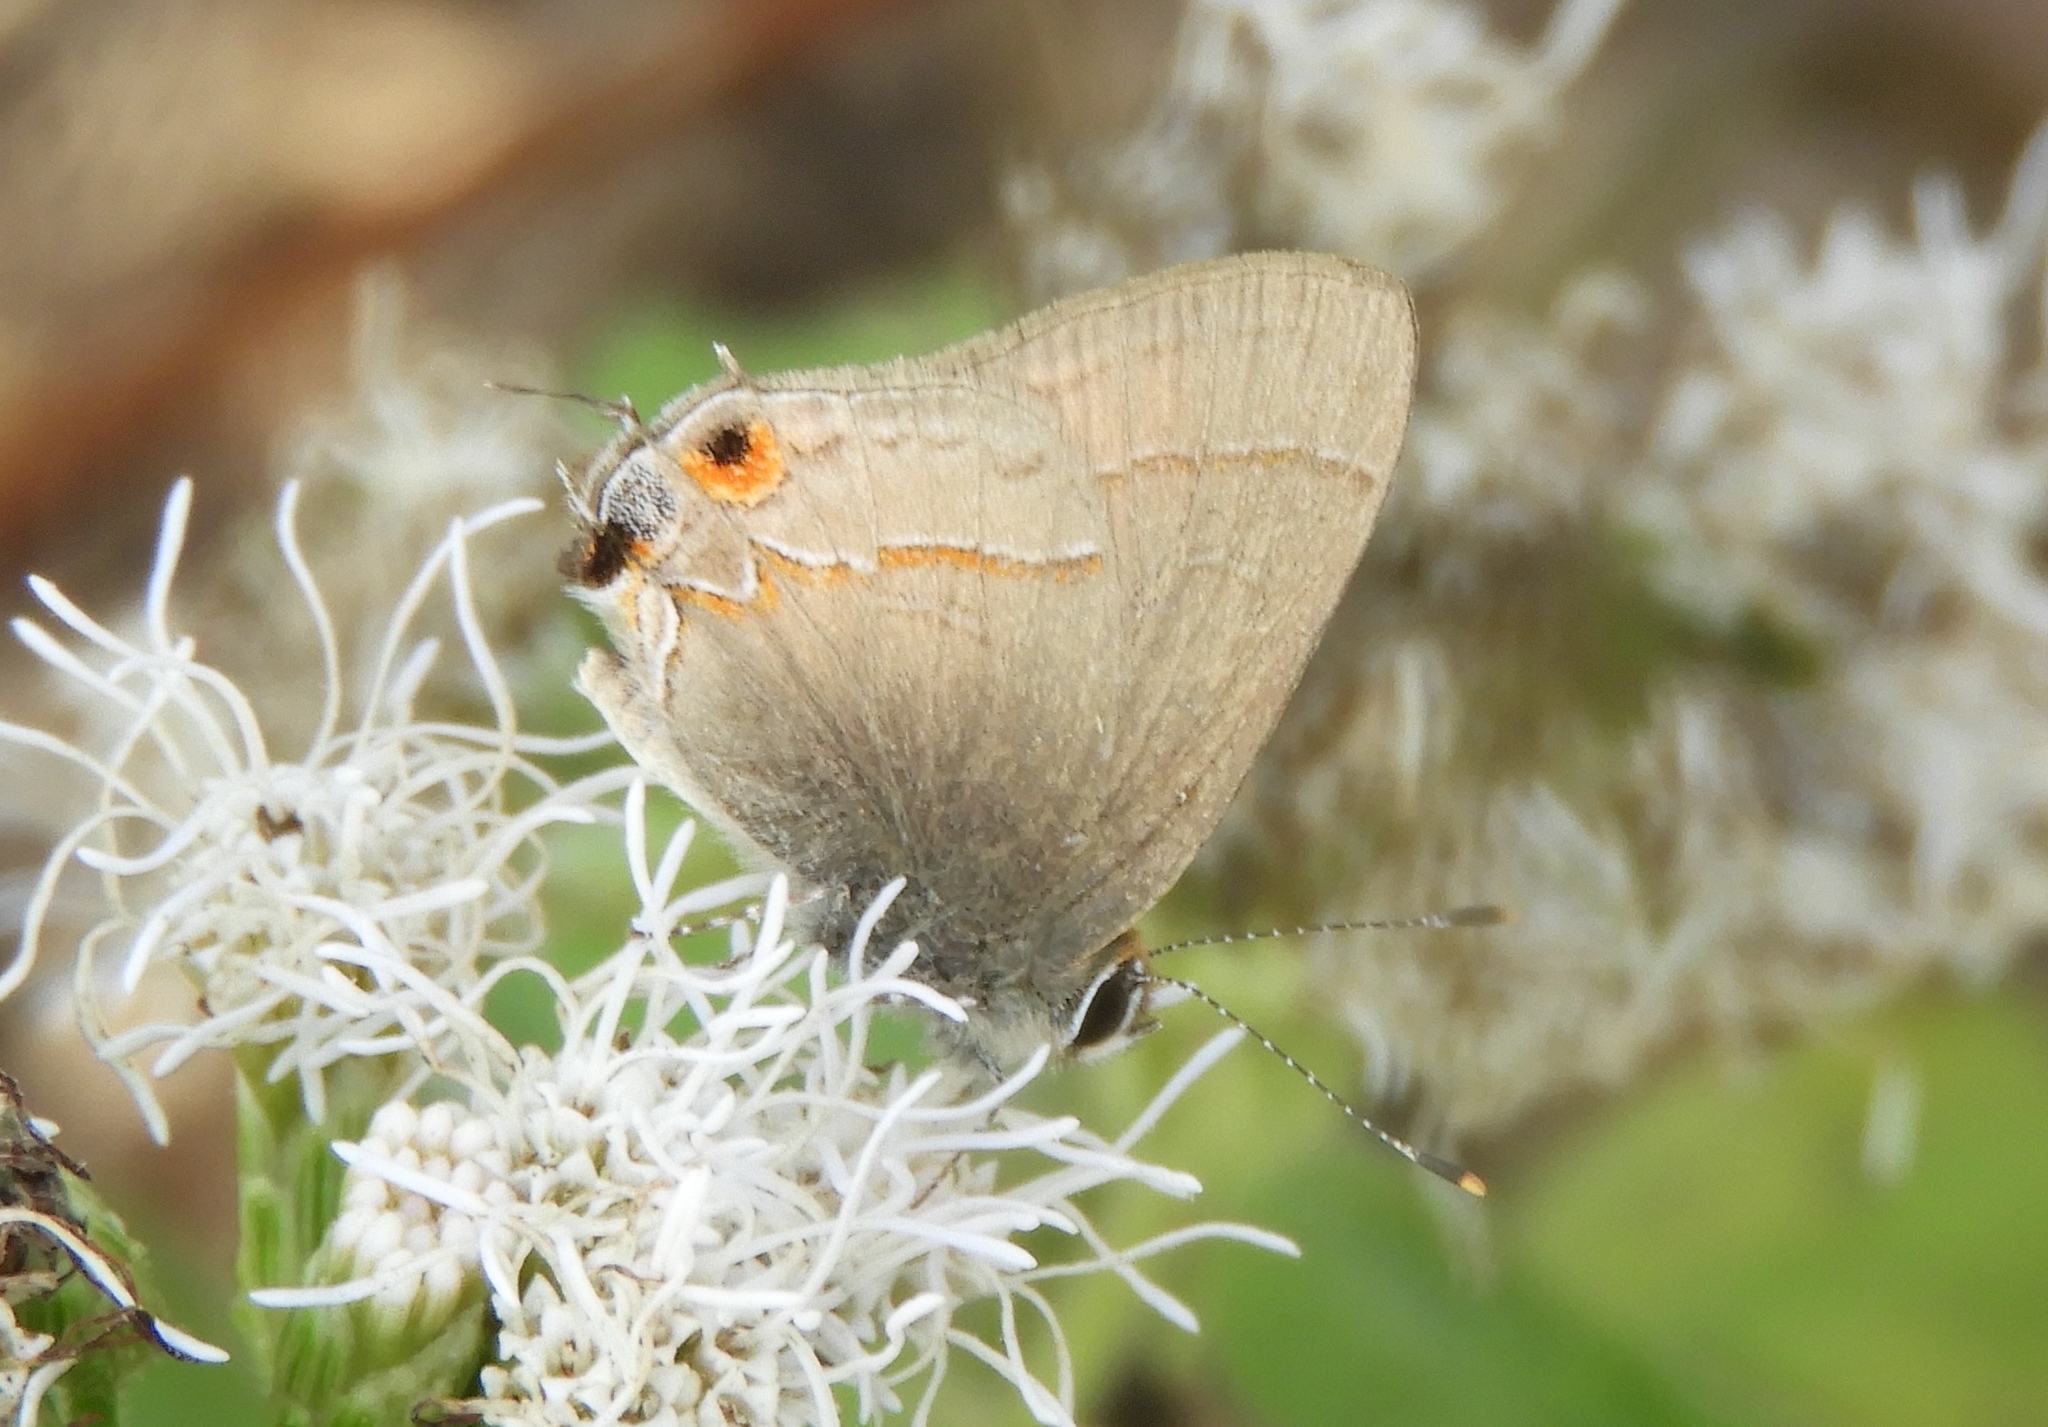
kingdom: Animalia
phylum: Arthropoda
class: Insecta
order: Lepidoptera
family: Lycaenidae
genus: Thecla
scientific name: Thecla joya
